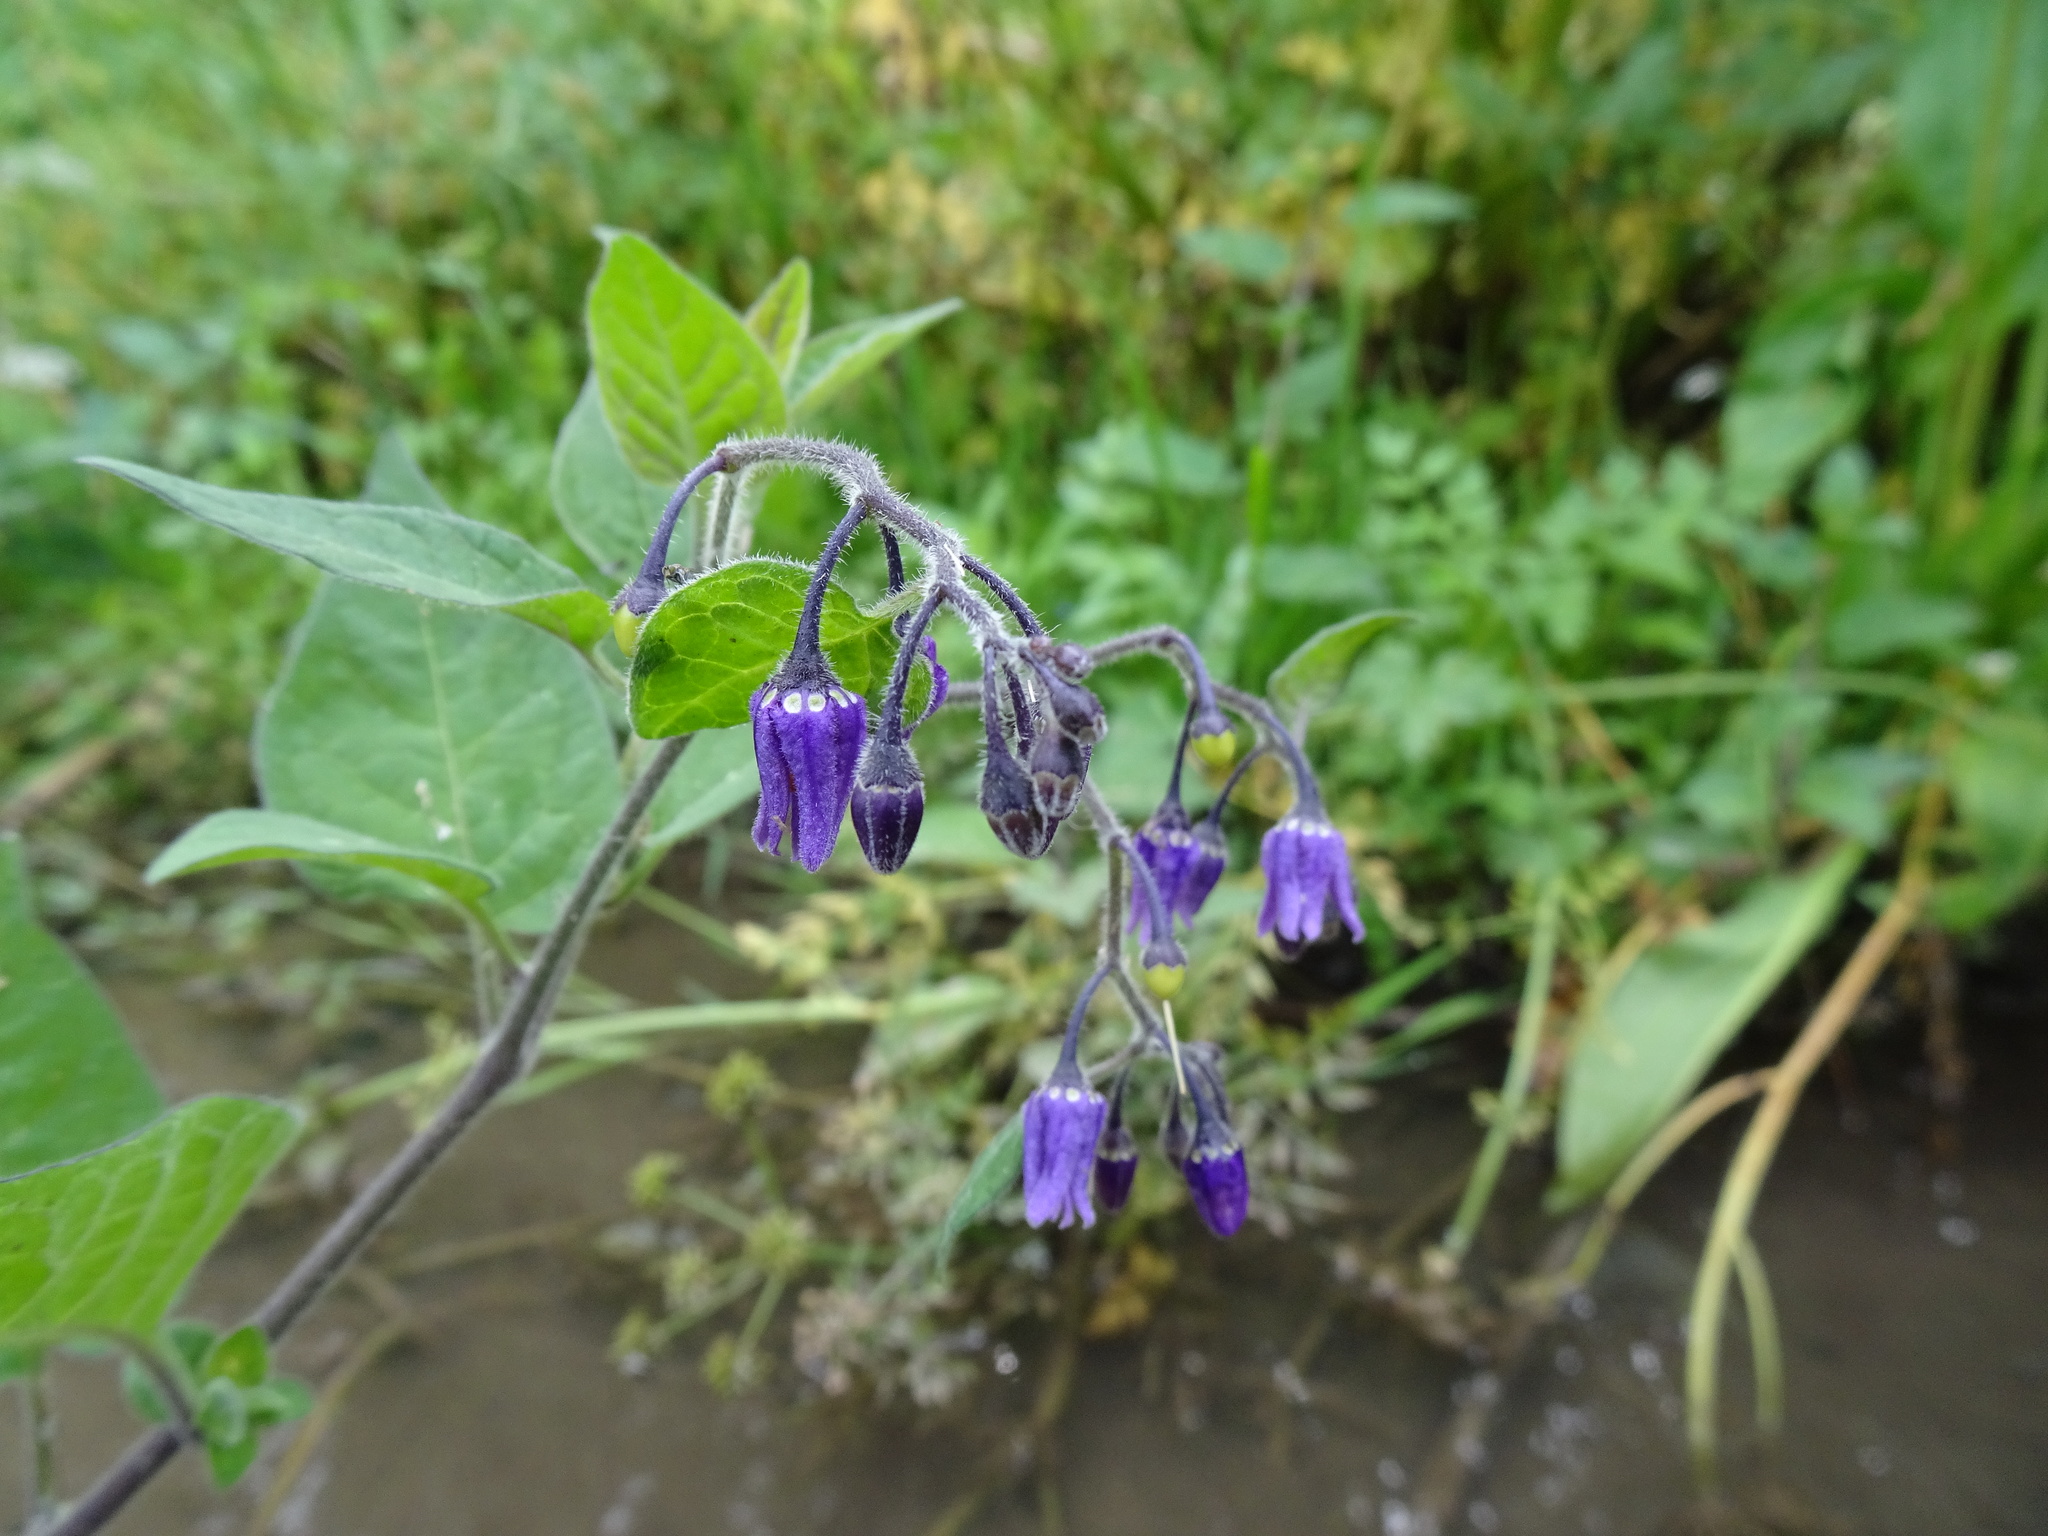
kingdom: Plantae
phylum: Tracheophyta
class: Magnoliopsida
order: Solanales
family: Solanaceae
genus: Solanum
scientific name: Solanum dulcamara
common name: Climbing nightshade
